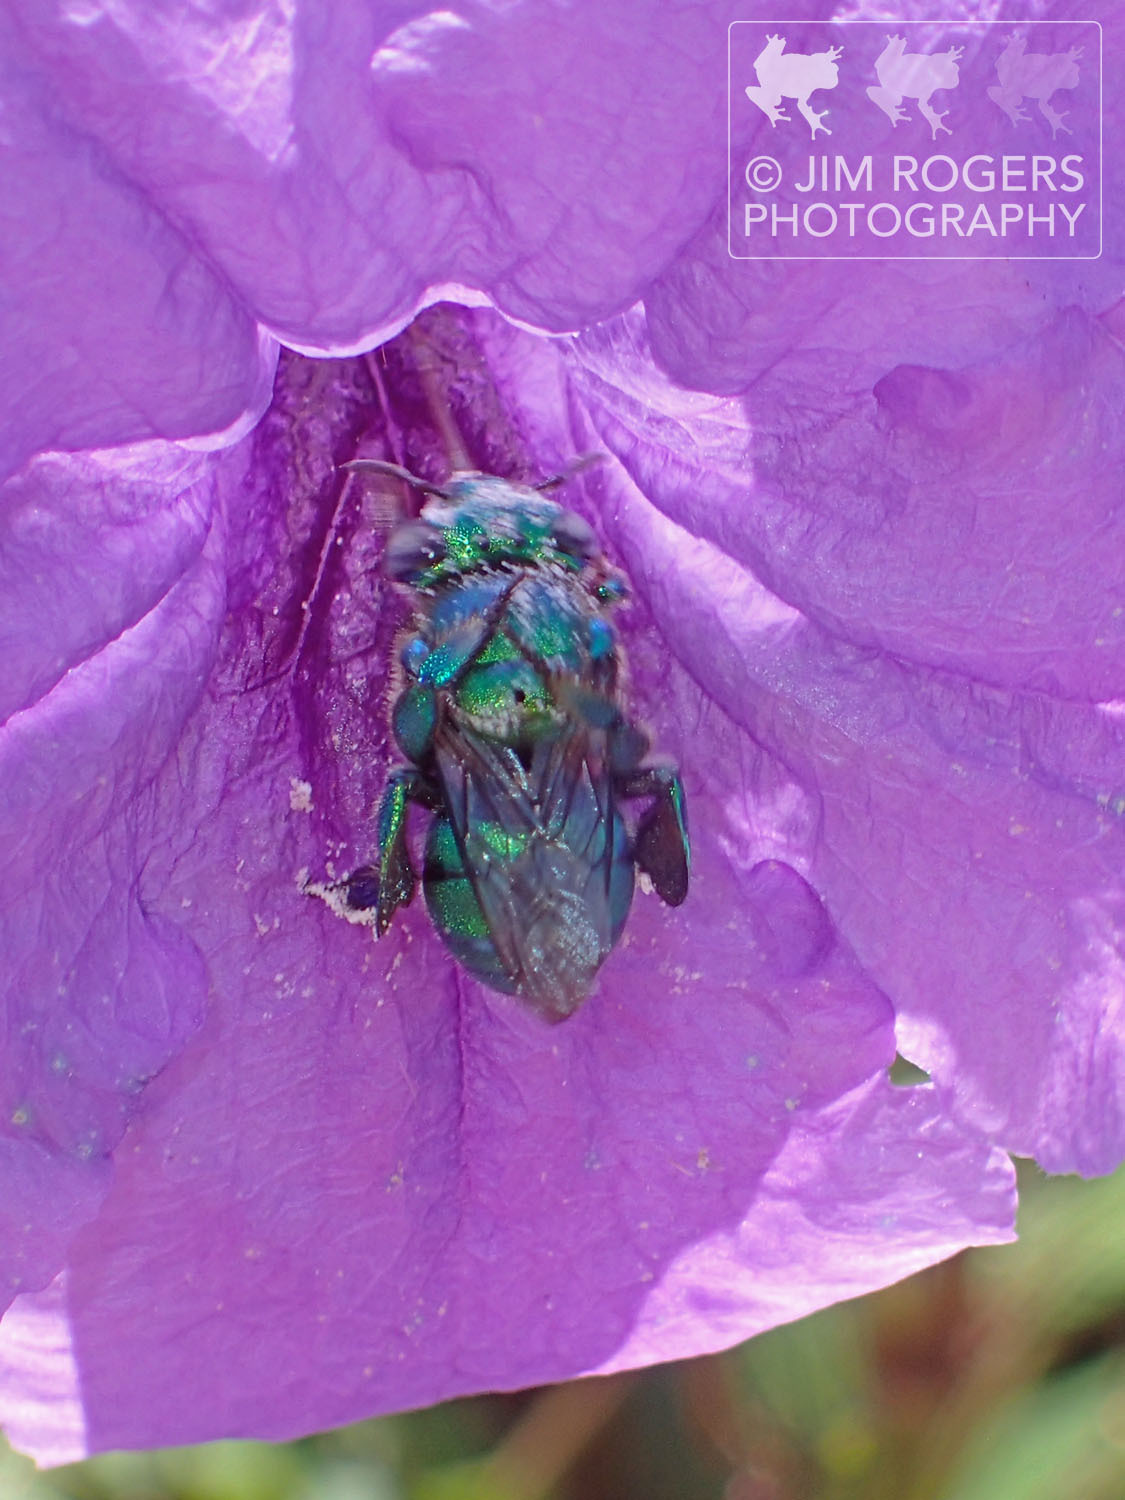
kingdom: Animalia
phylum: Arthropoda
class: Insecta
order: Hymenoptera
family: Apidae
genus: Euglossa
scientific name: Euglossa dilemma
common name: Green orchid bee
